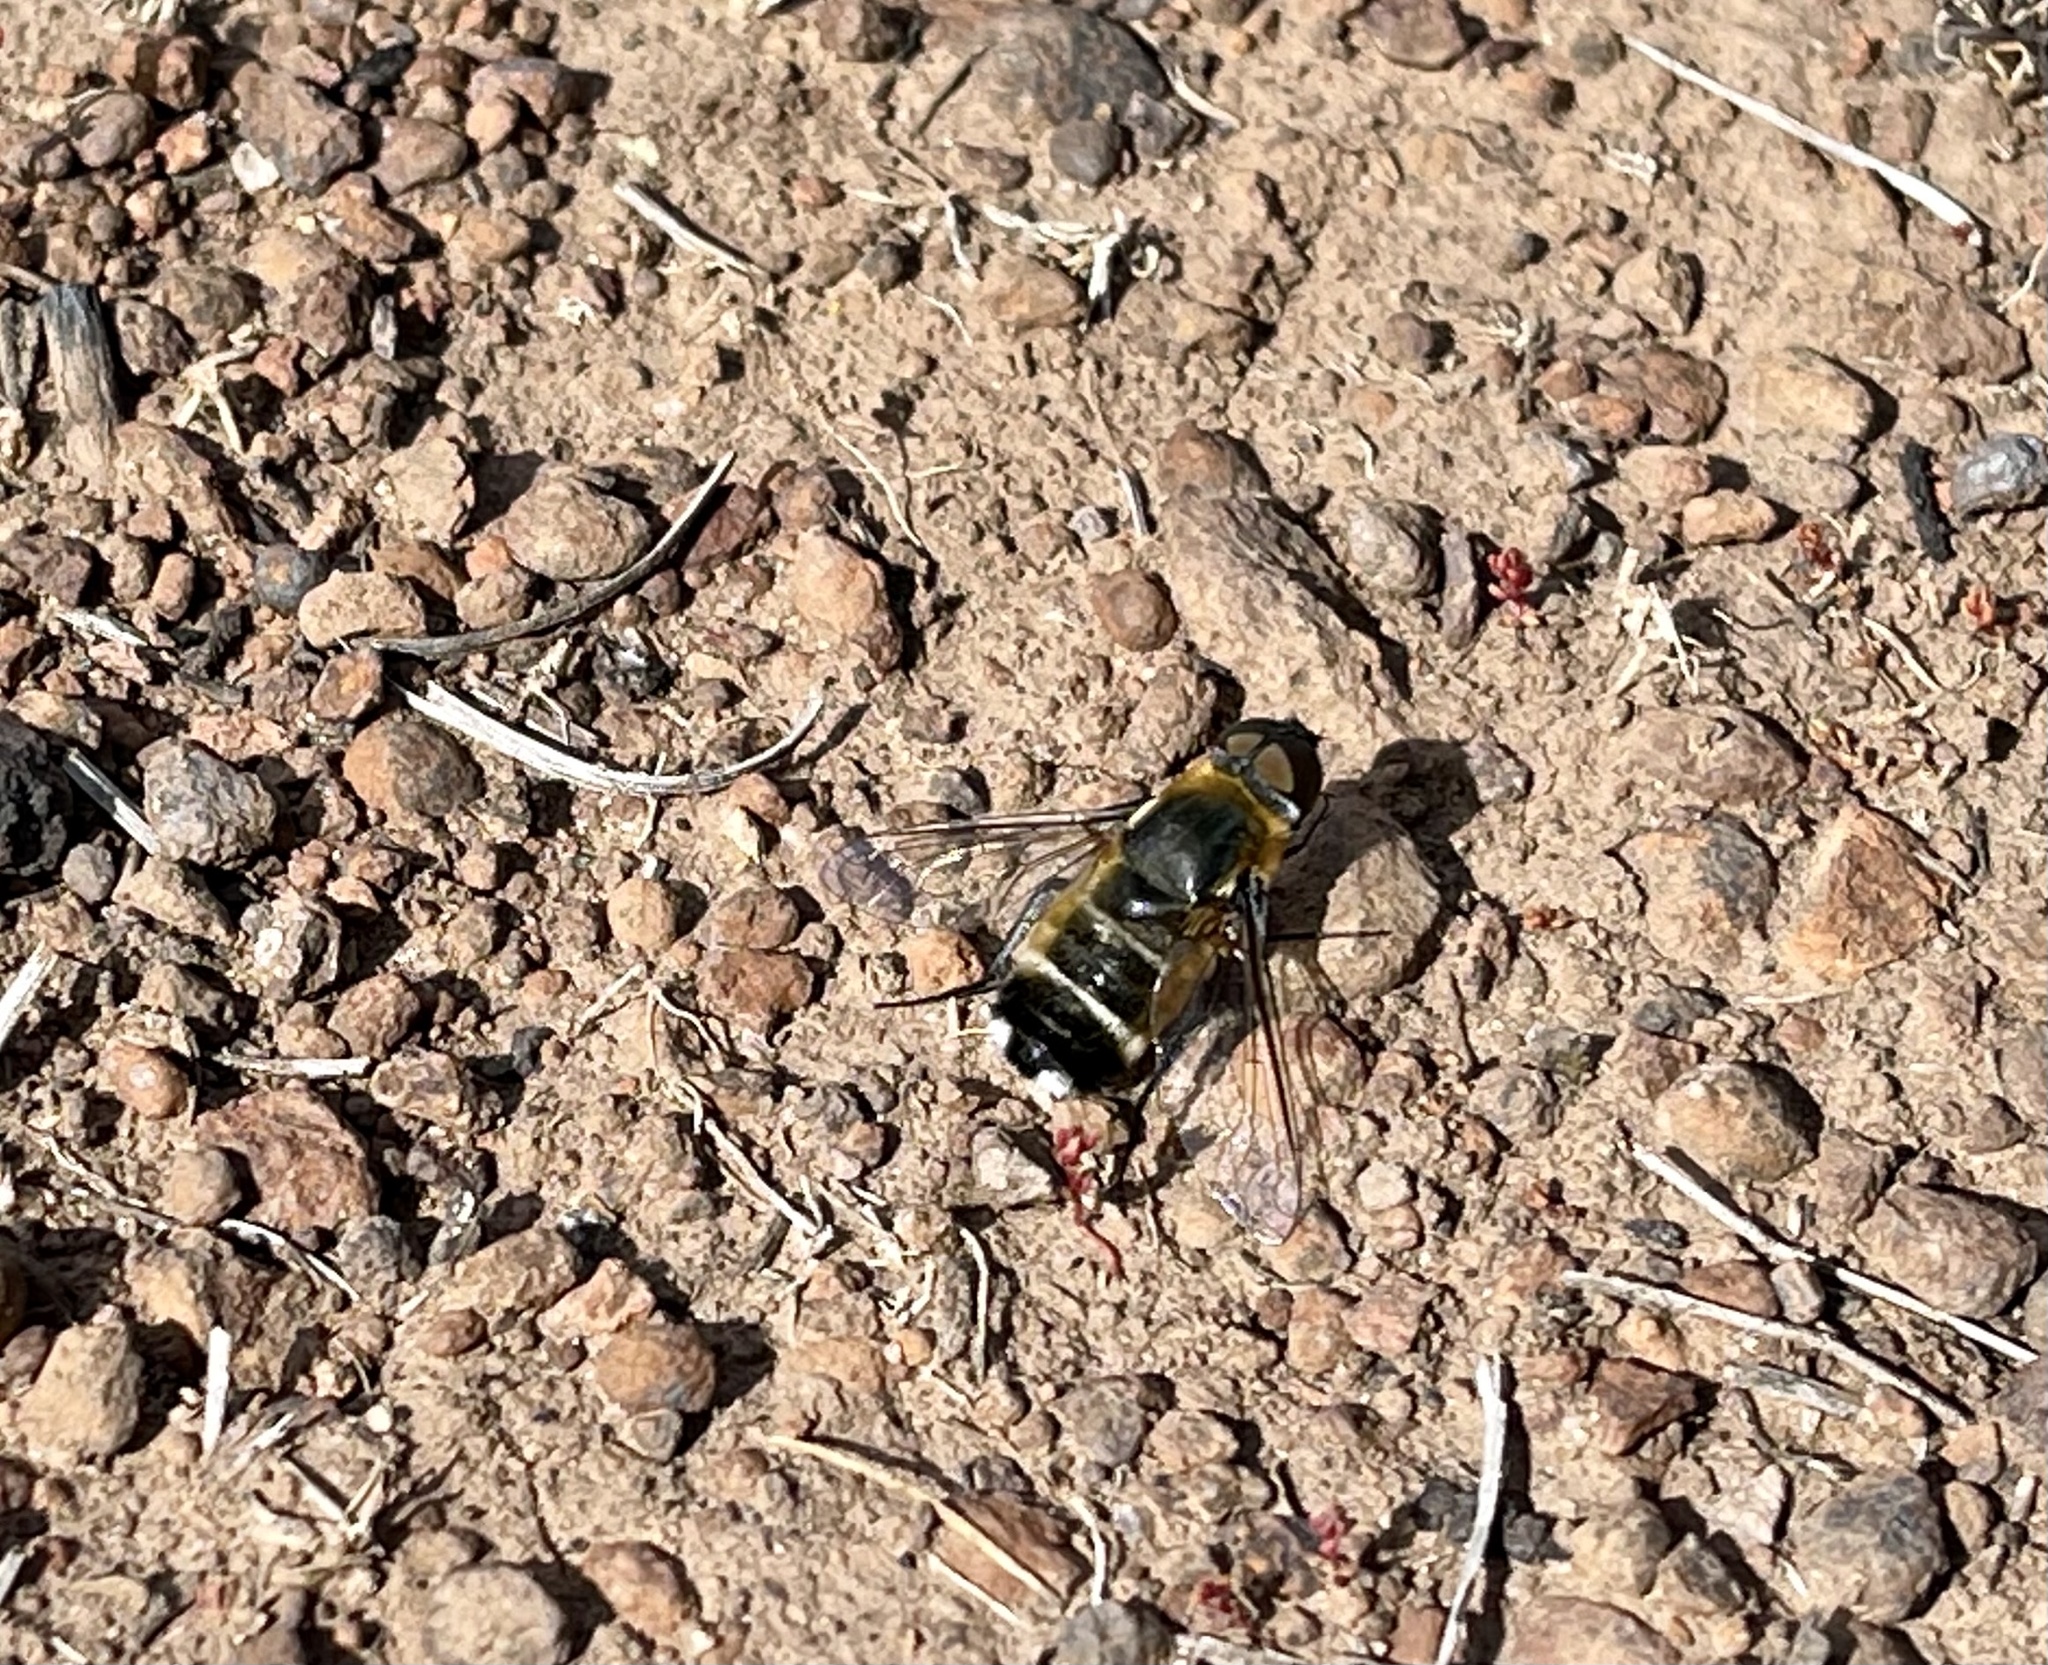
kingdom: Animalia
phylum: Arthropoda
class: Insecta
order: Diptera
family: Bombyliidae
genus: Villa
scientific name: Villa nigriceps
